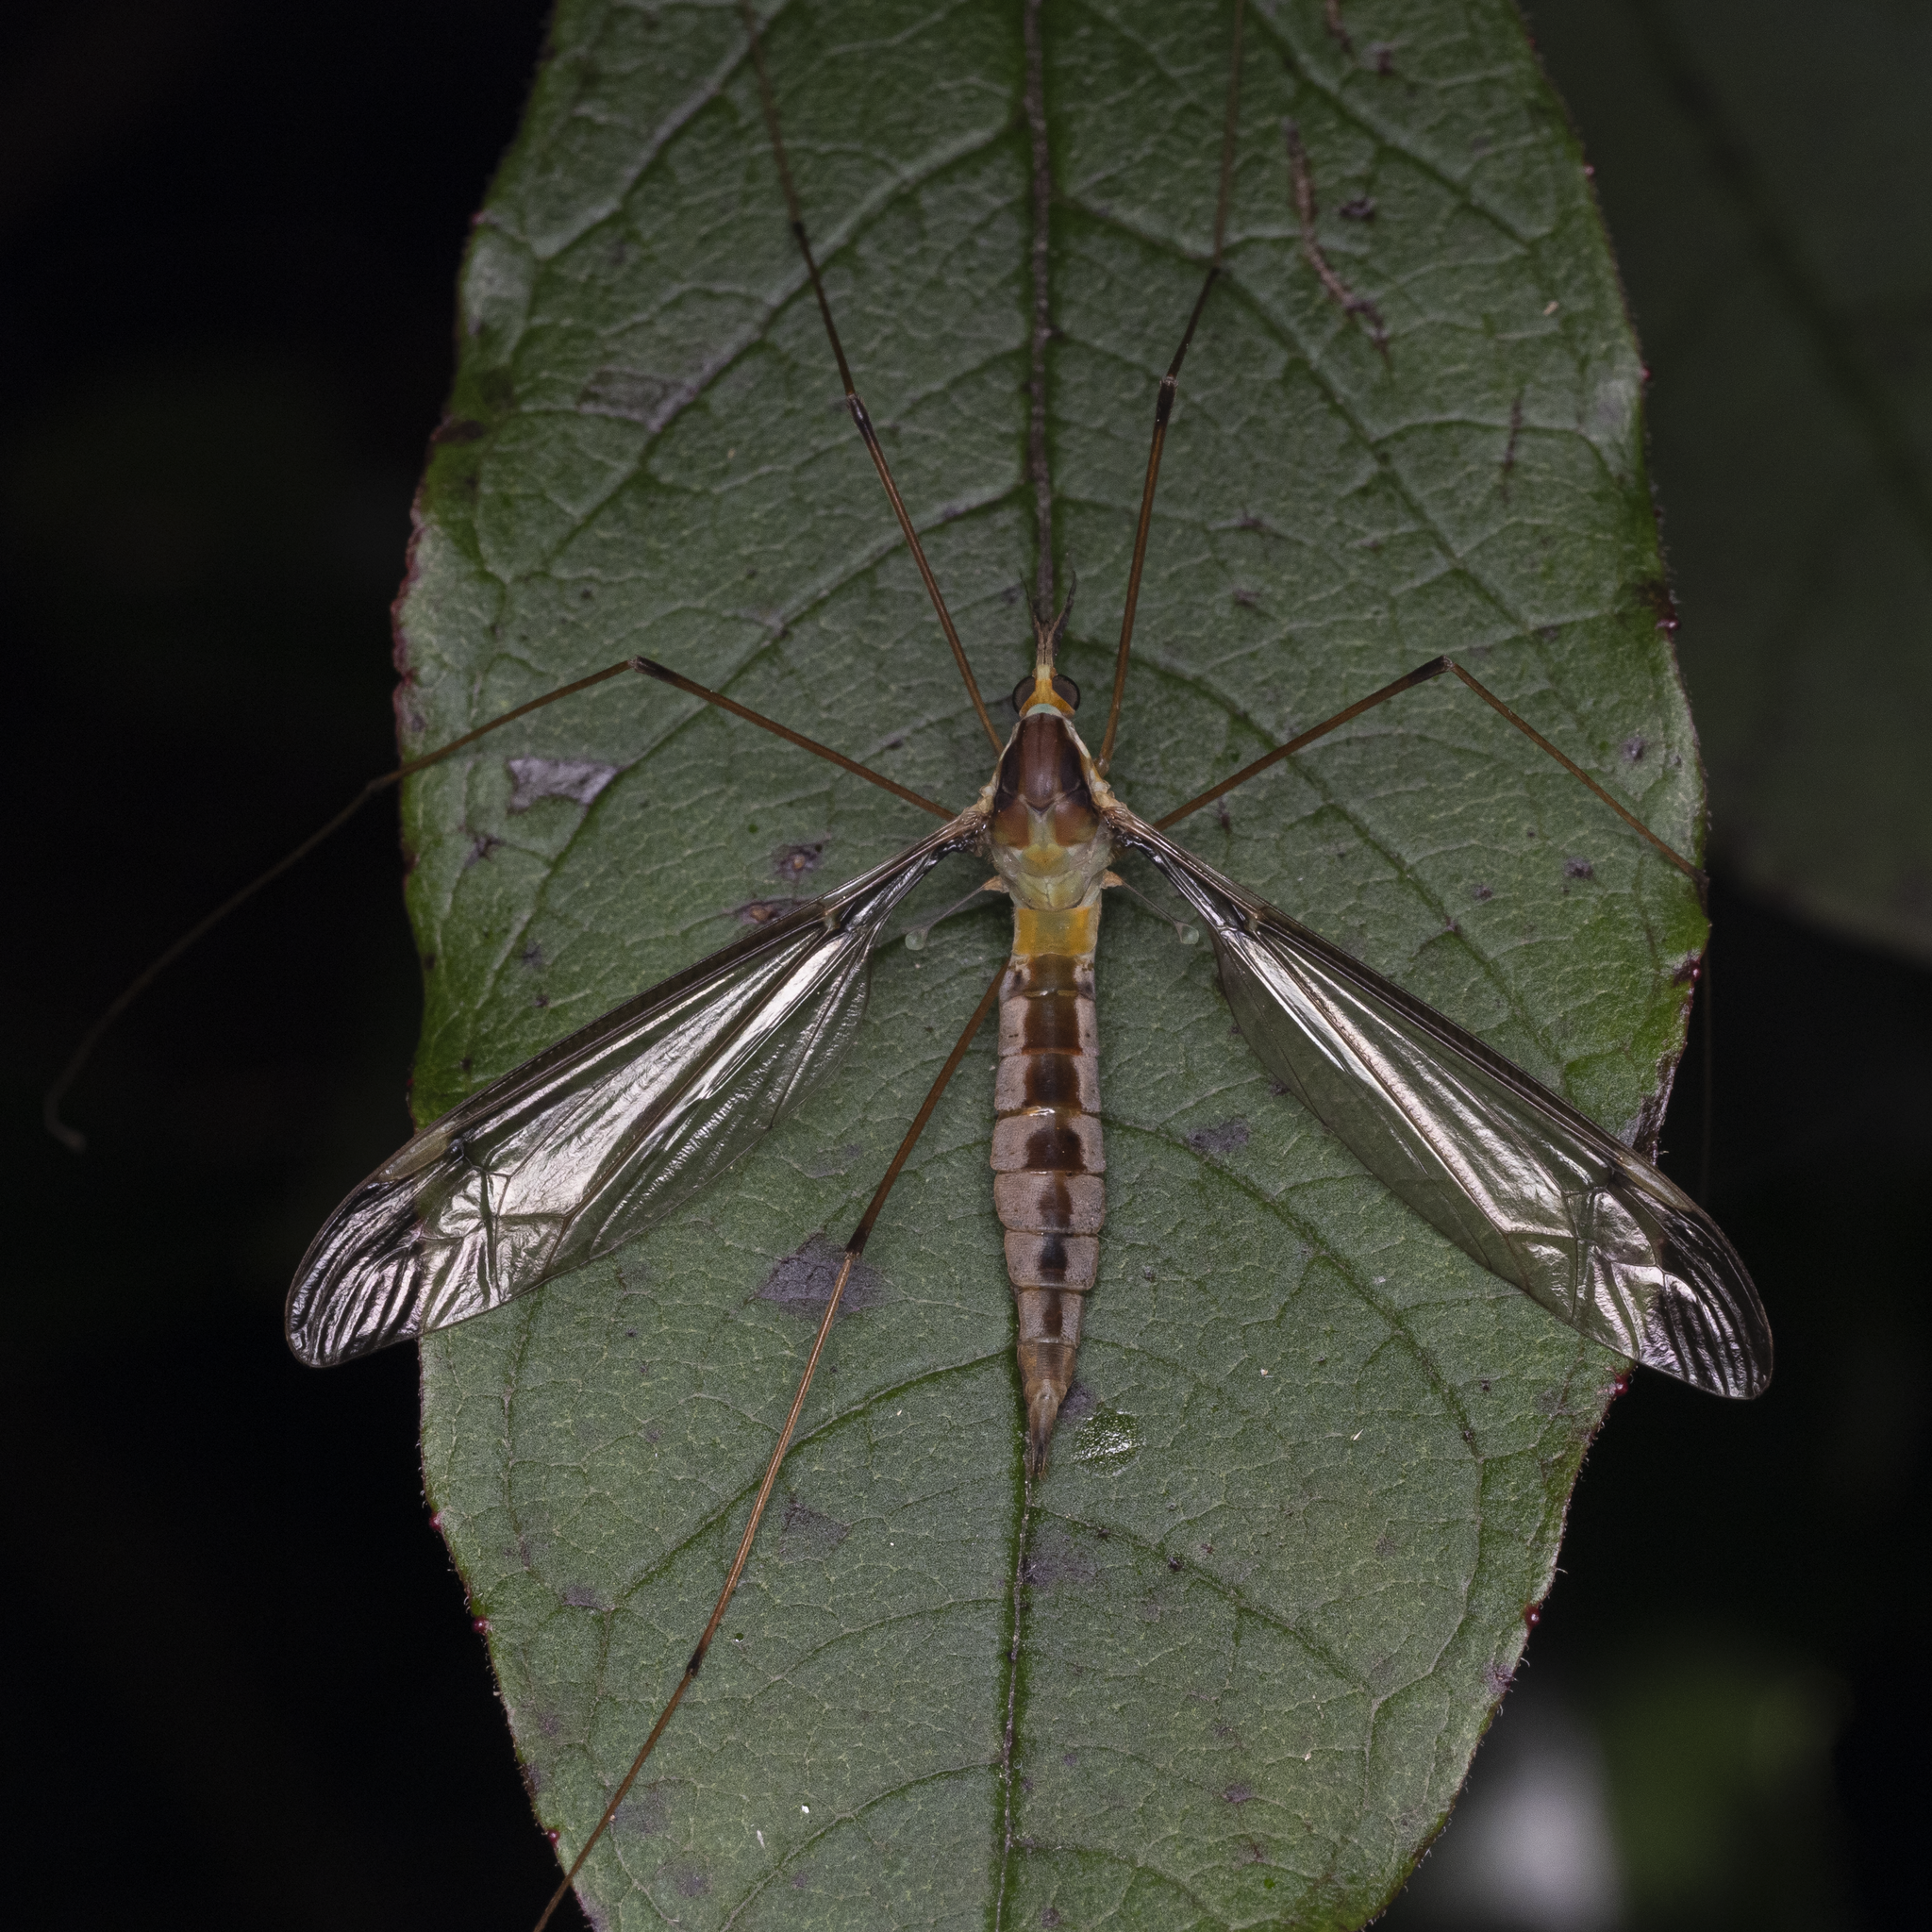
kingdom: Animalia
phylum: Arthropoda
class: Insecta
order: Diptera
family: Tipulidae
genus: Leptotarsus
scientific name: Leptotarsus albistigma
